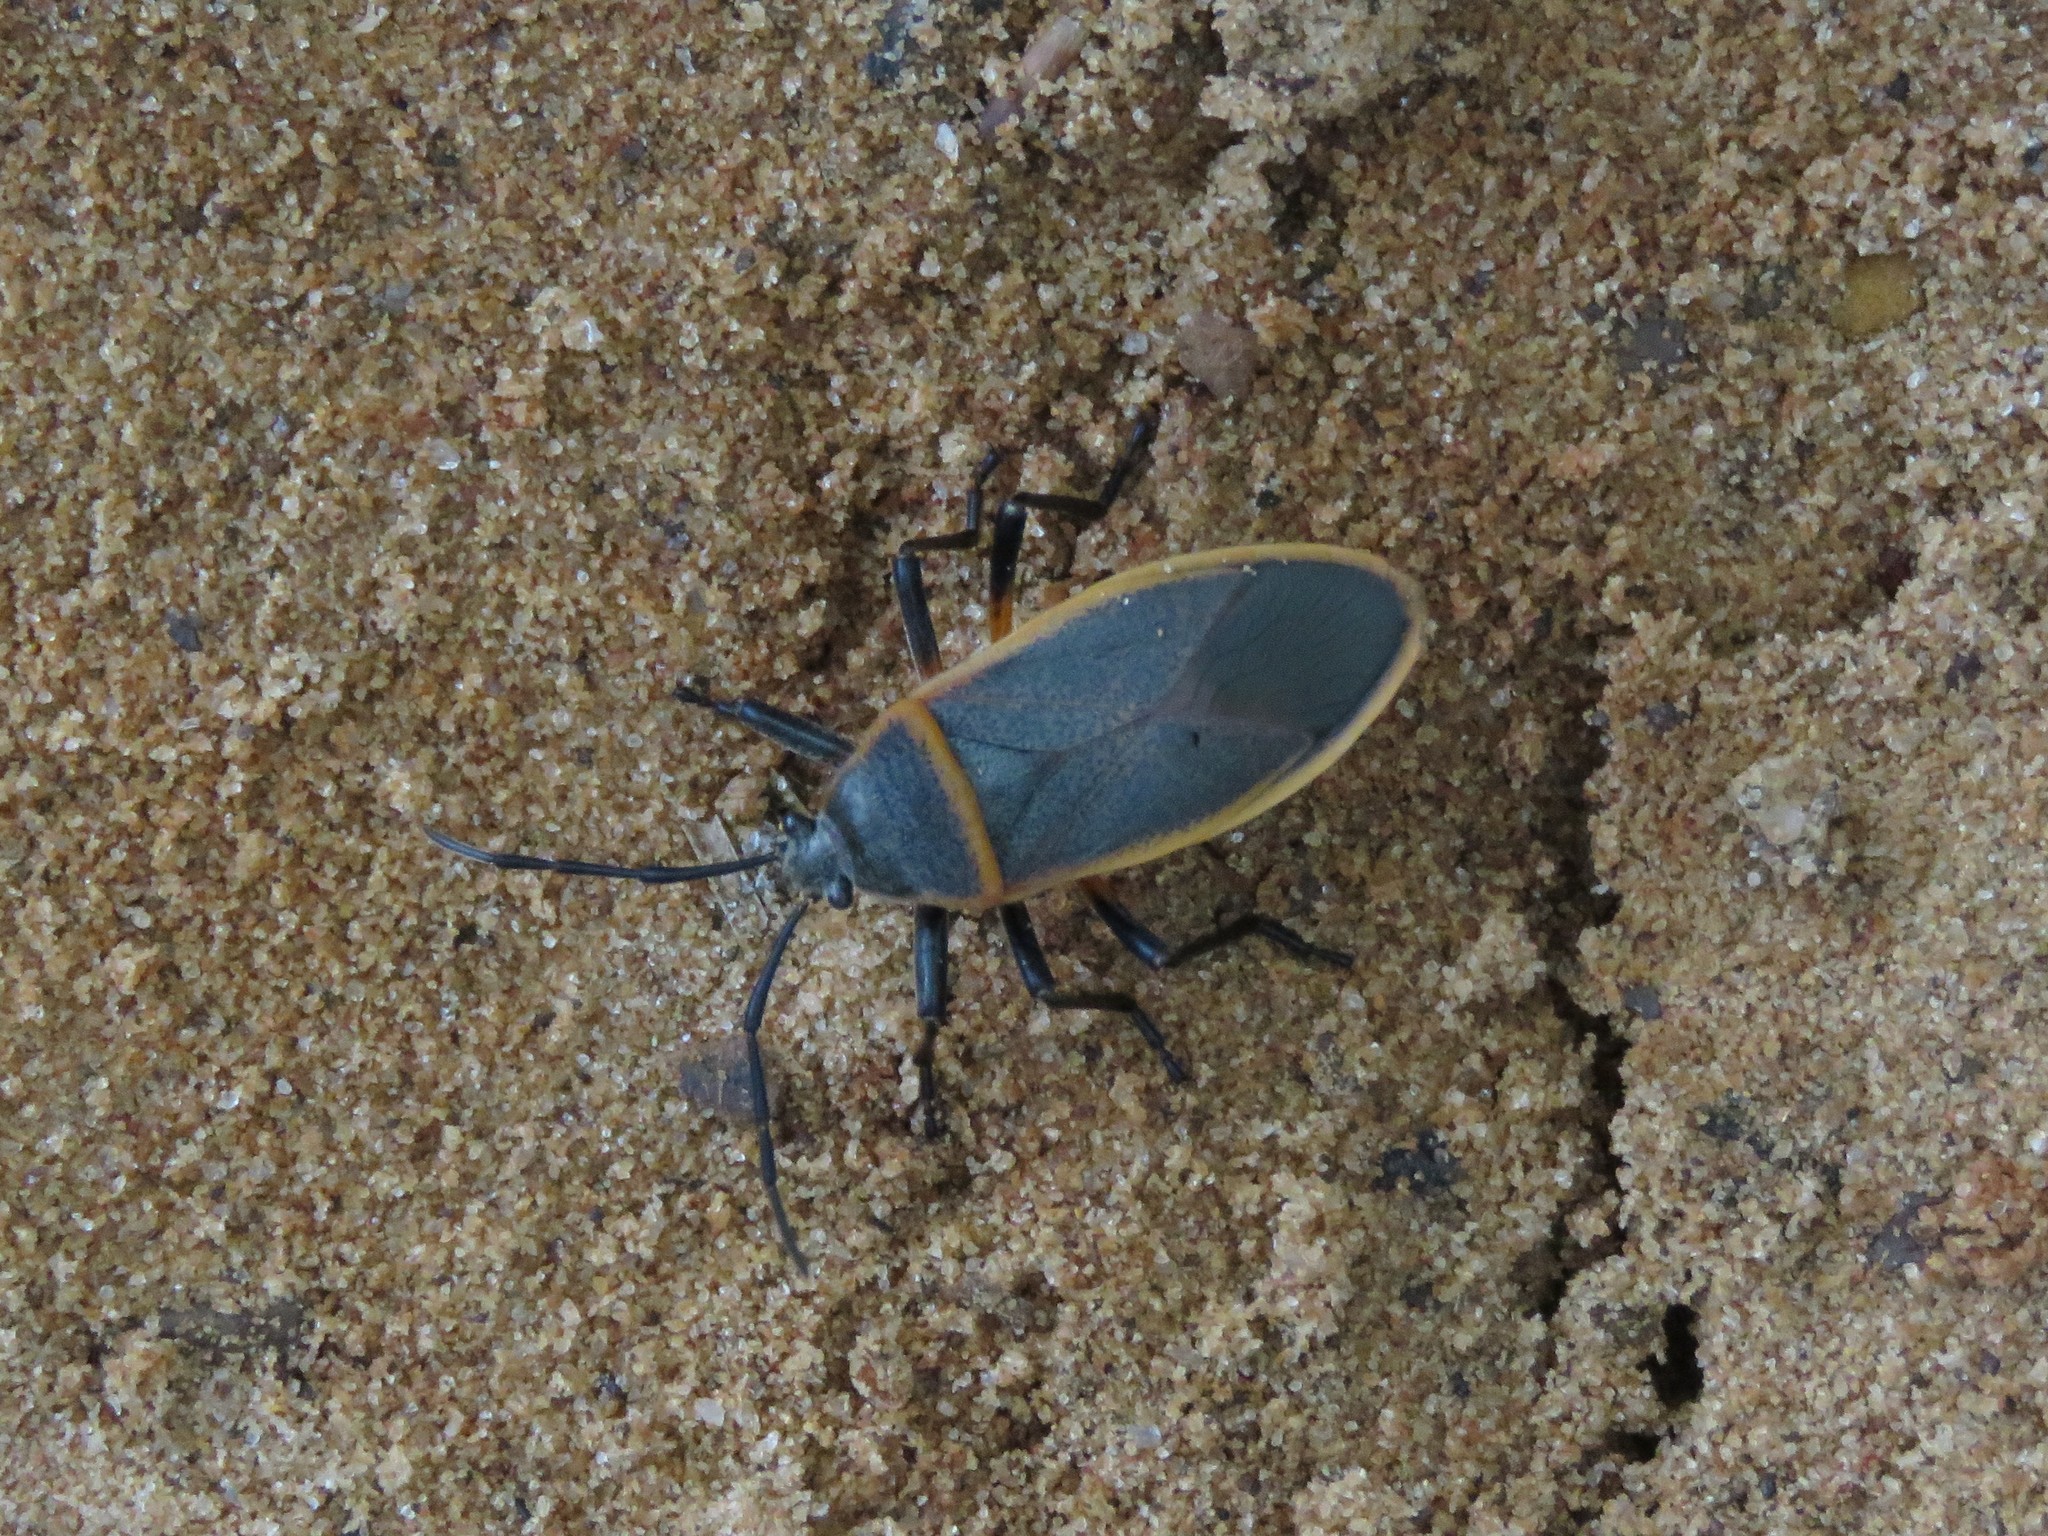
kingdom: Animalia
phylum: Arthropoda
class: Insecta
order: Hemiptera
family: Largidae
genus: Largus
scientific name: Largus succinctus
